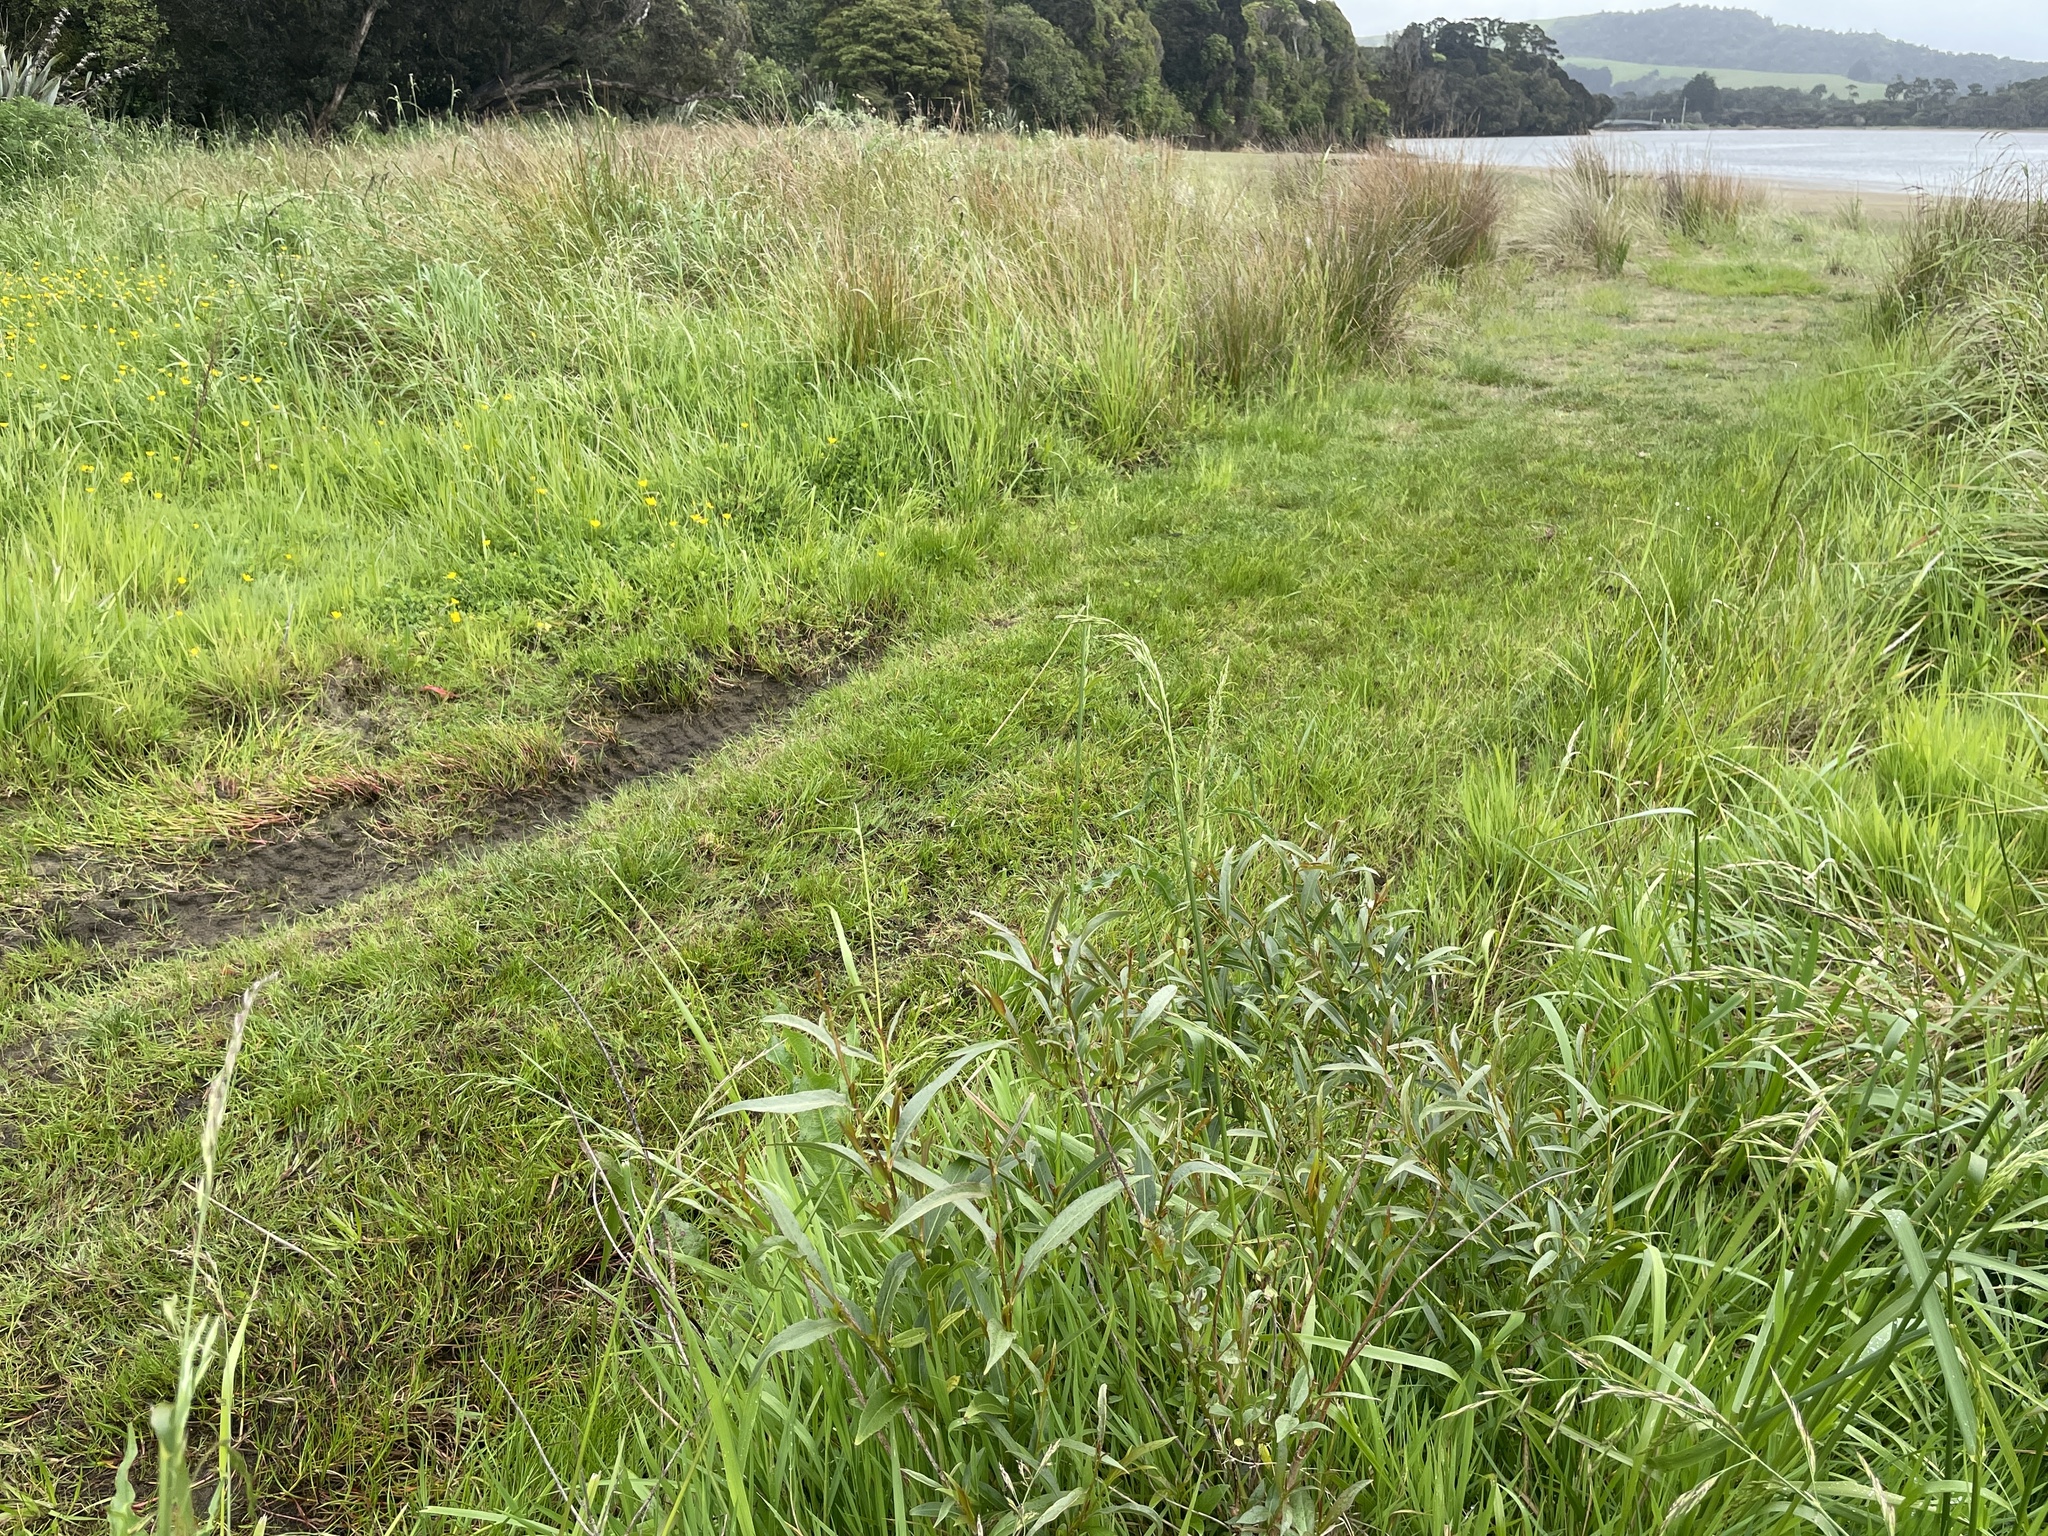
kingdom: Plantae
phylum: Tracheophyta
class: Magnoliopsida
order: Malpighiales
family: Salicaceae
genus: Salix
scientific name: Salix fragilis
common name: Crack willow
